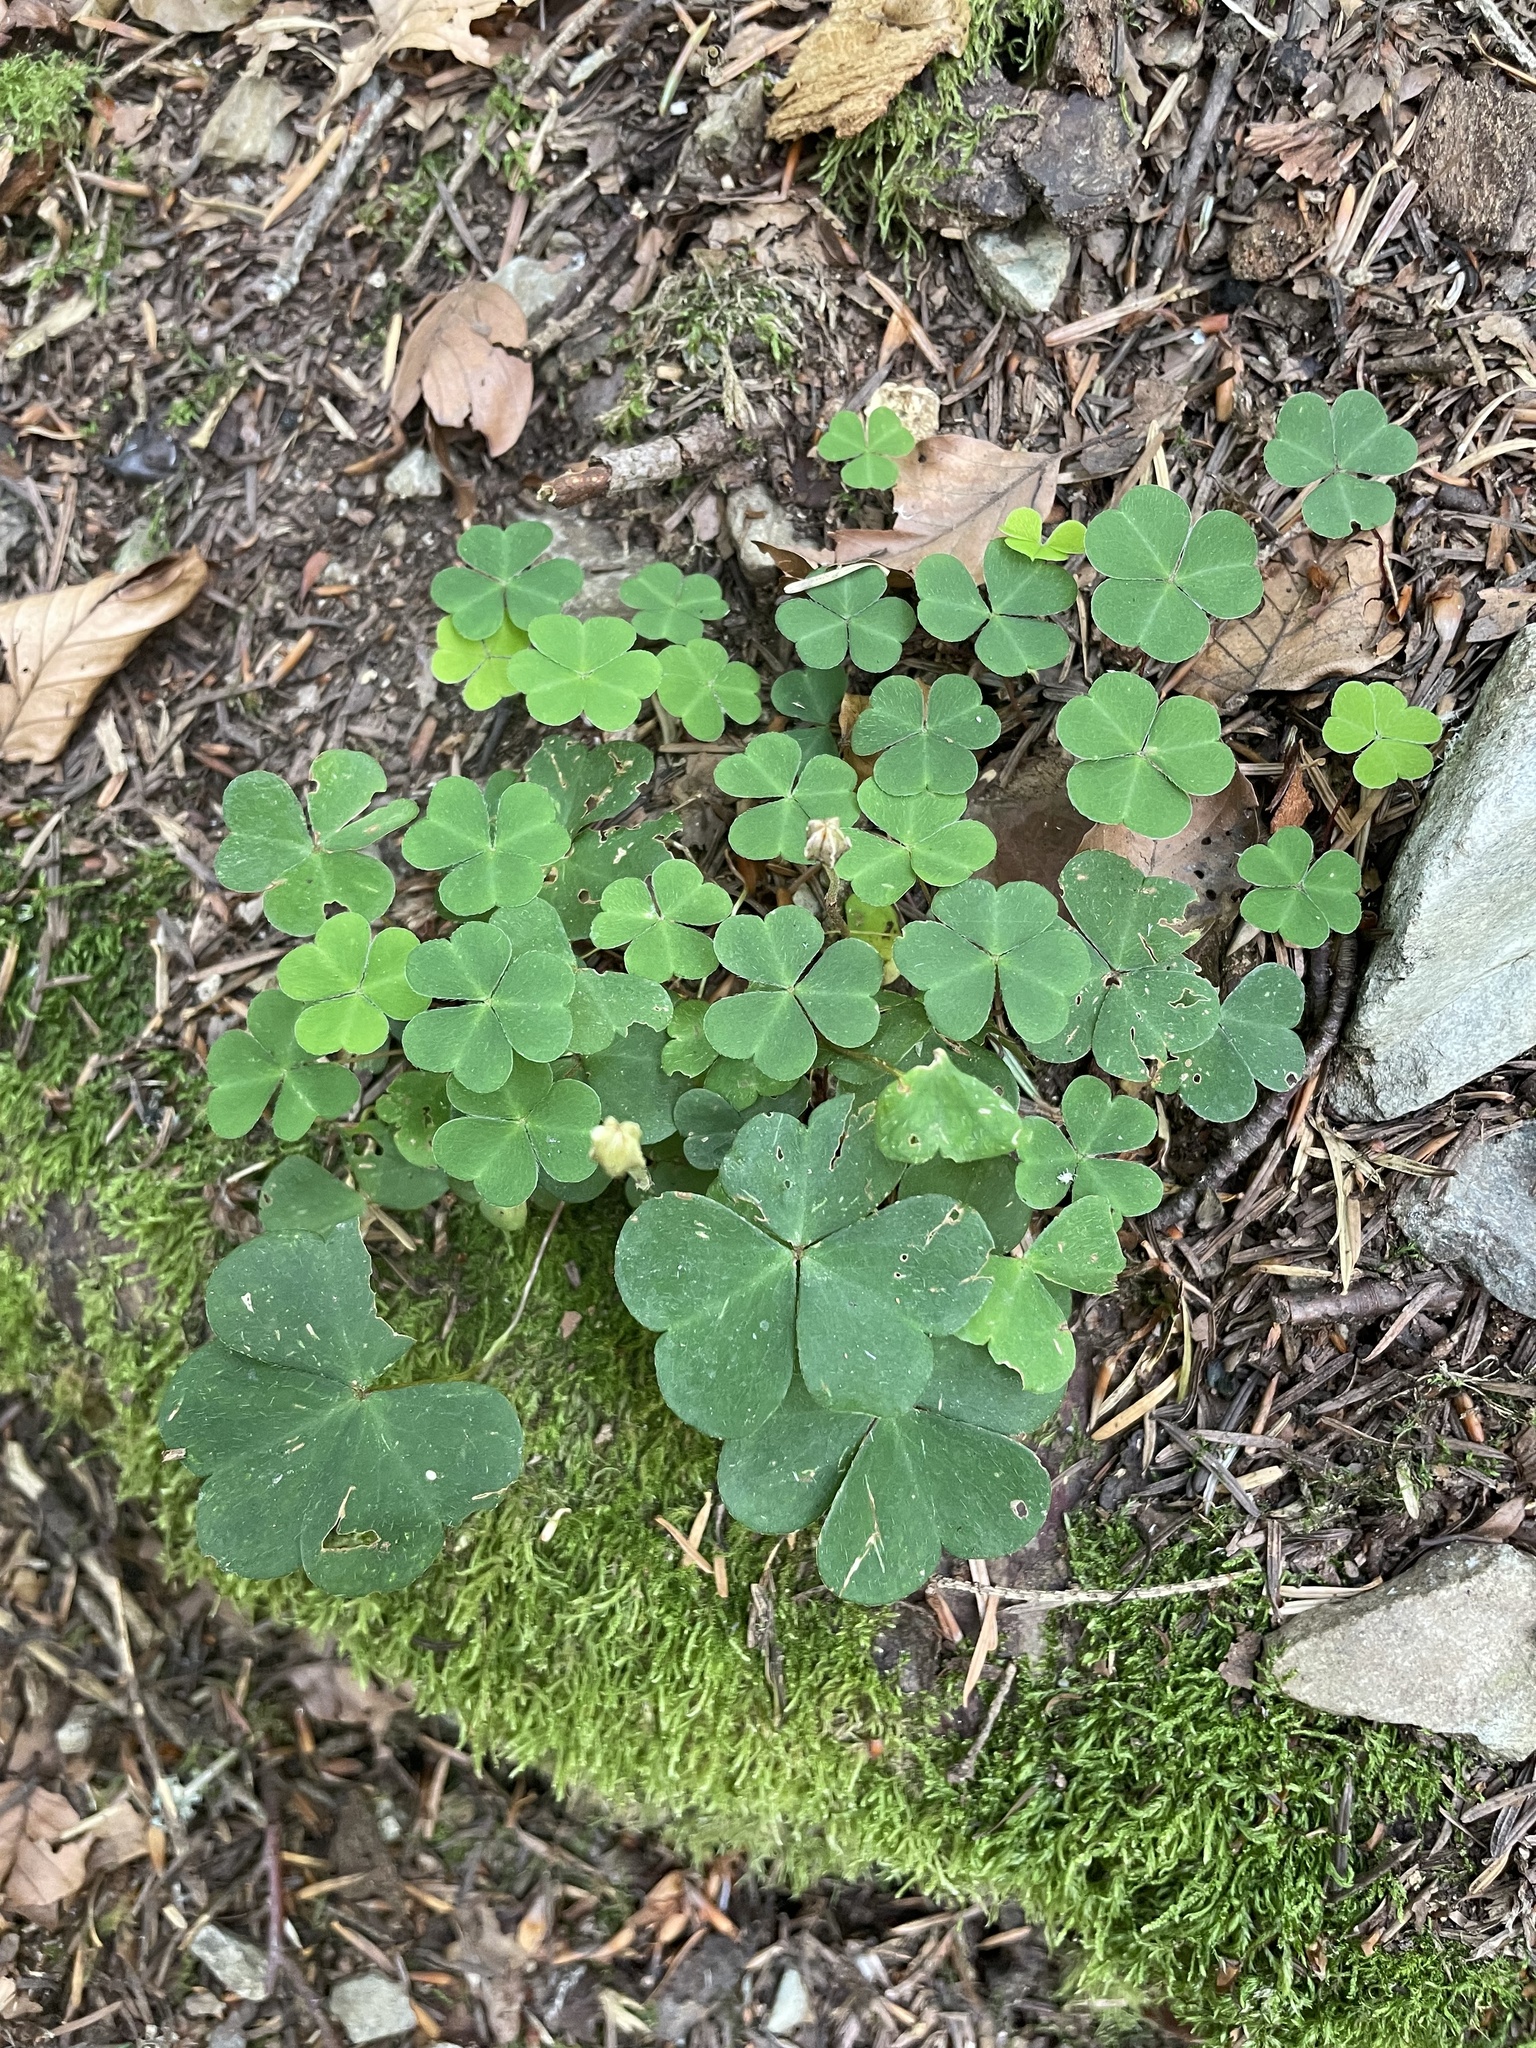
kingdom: Plantae
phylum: Tracheophyta
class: Magnoliopsida
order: Oxalidales
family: Oxalidaceae
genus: Oxalis
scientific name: Oxalis acetosella
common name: Wood-sorrel
